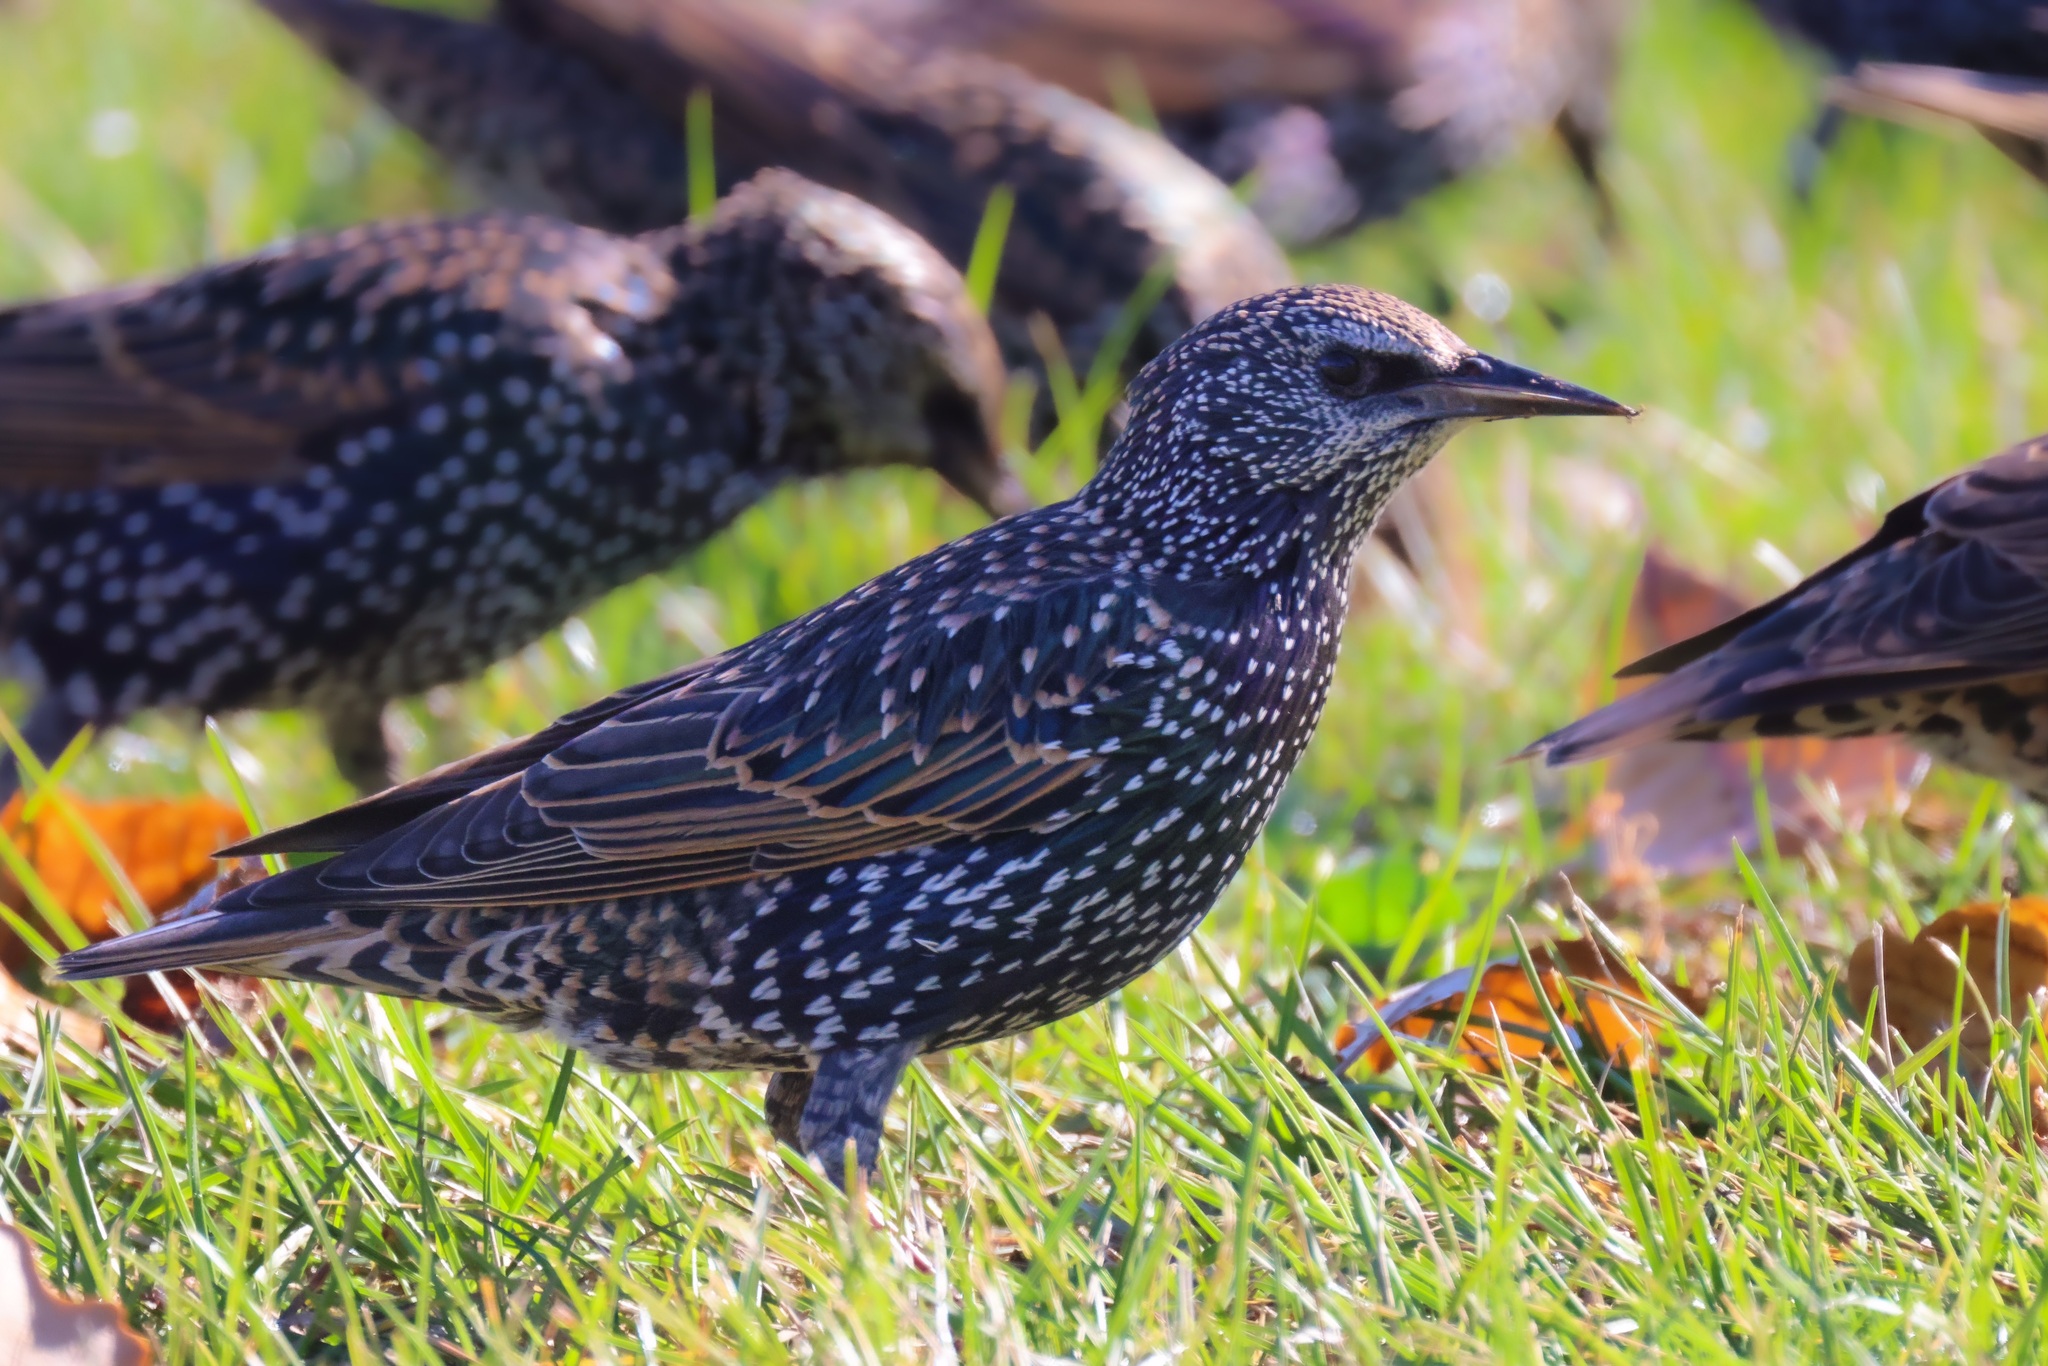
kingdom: Animalia
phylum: Chordata
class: Aves
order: Passeriformes
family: Sturnidae
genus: Sturnus
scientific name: Sturnus vulgaris
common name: Common starling
